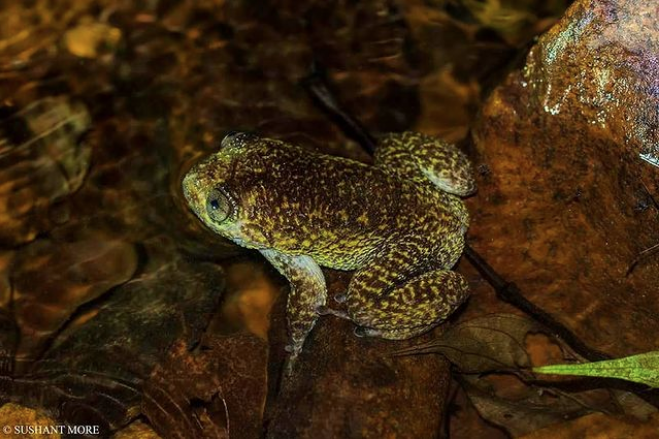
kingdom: Animalia
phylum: Chordata
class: Amphibia
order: Anura
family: Nyctibatrachidae
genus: Nyctibatrachus
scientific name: Nyctibatrachus grandis
